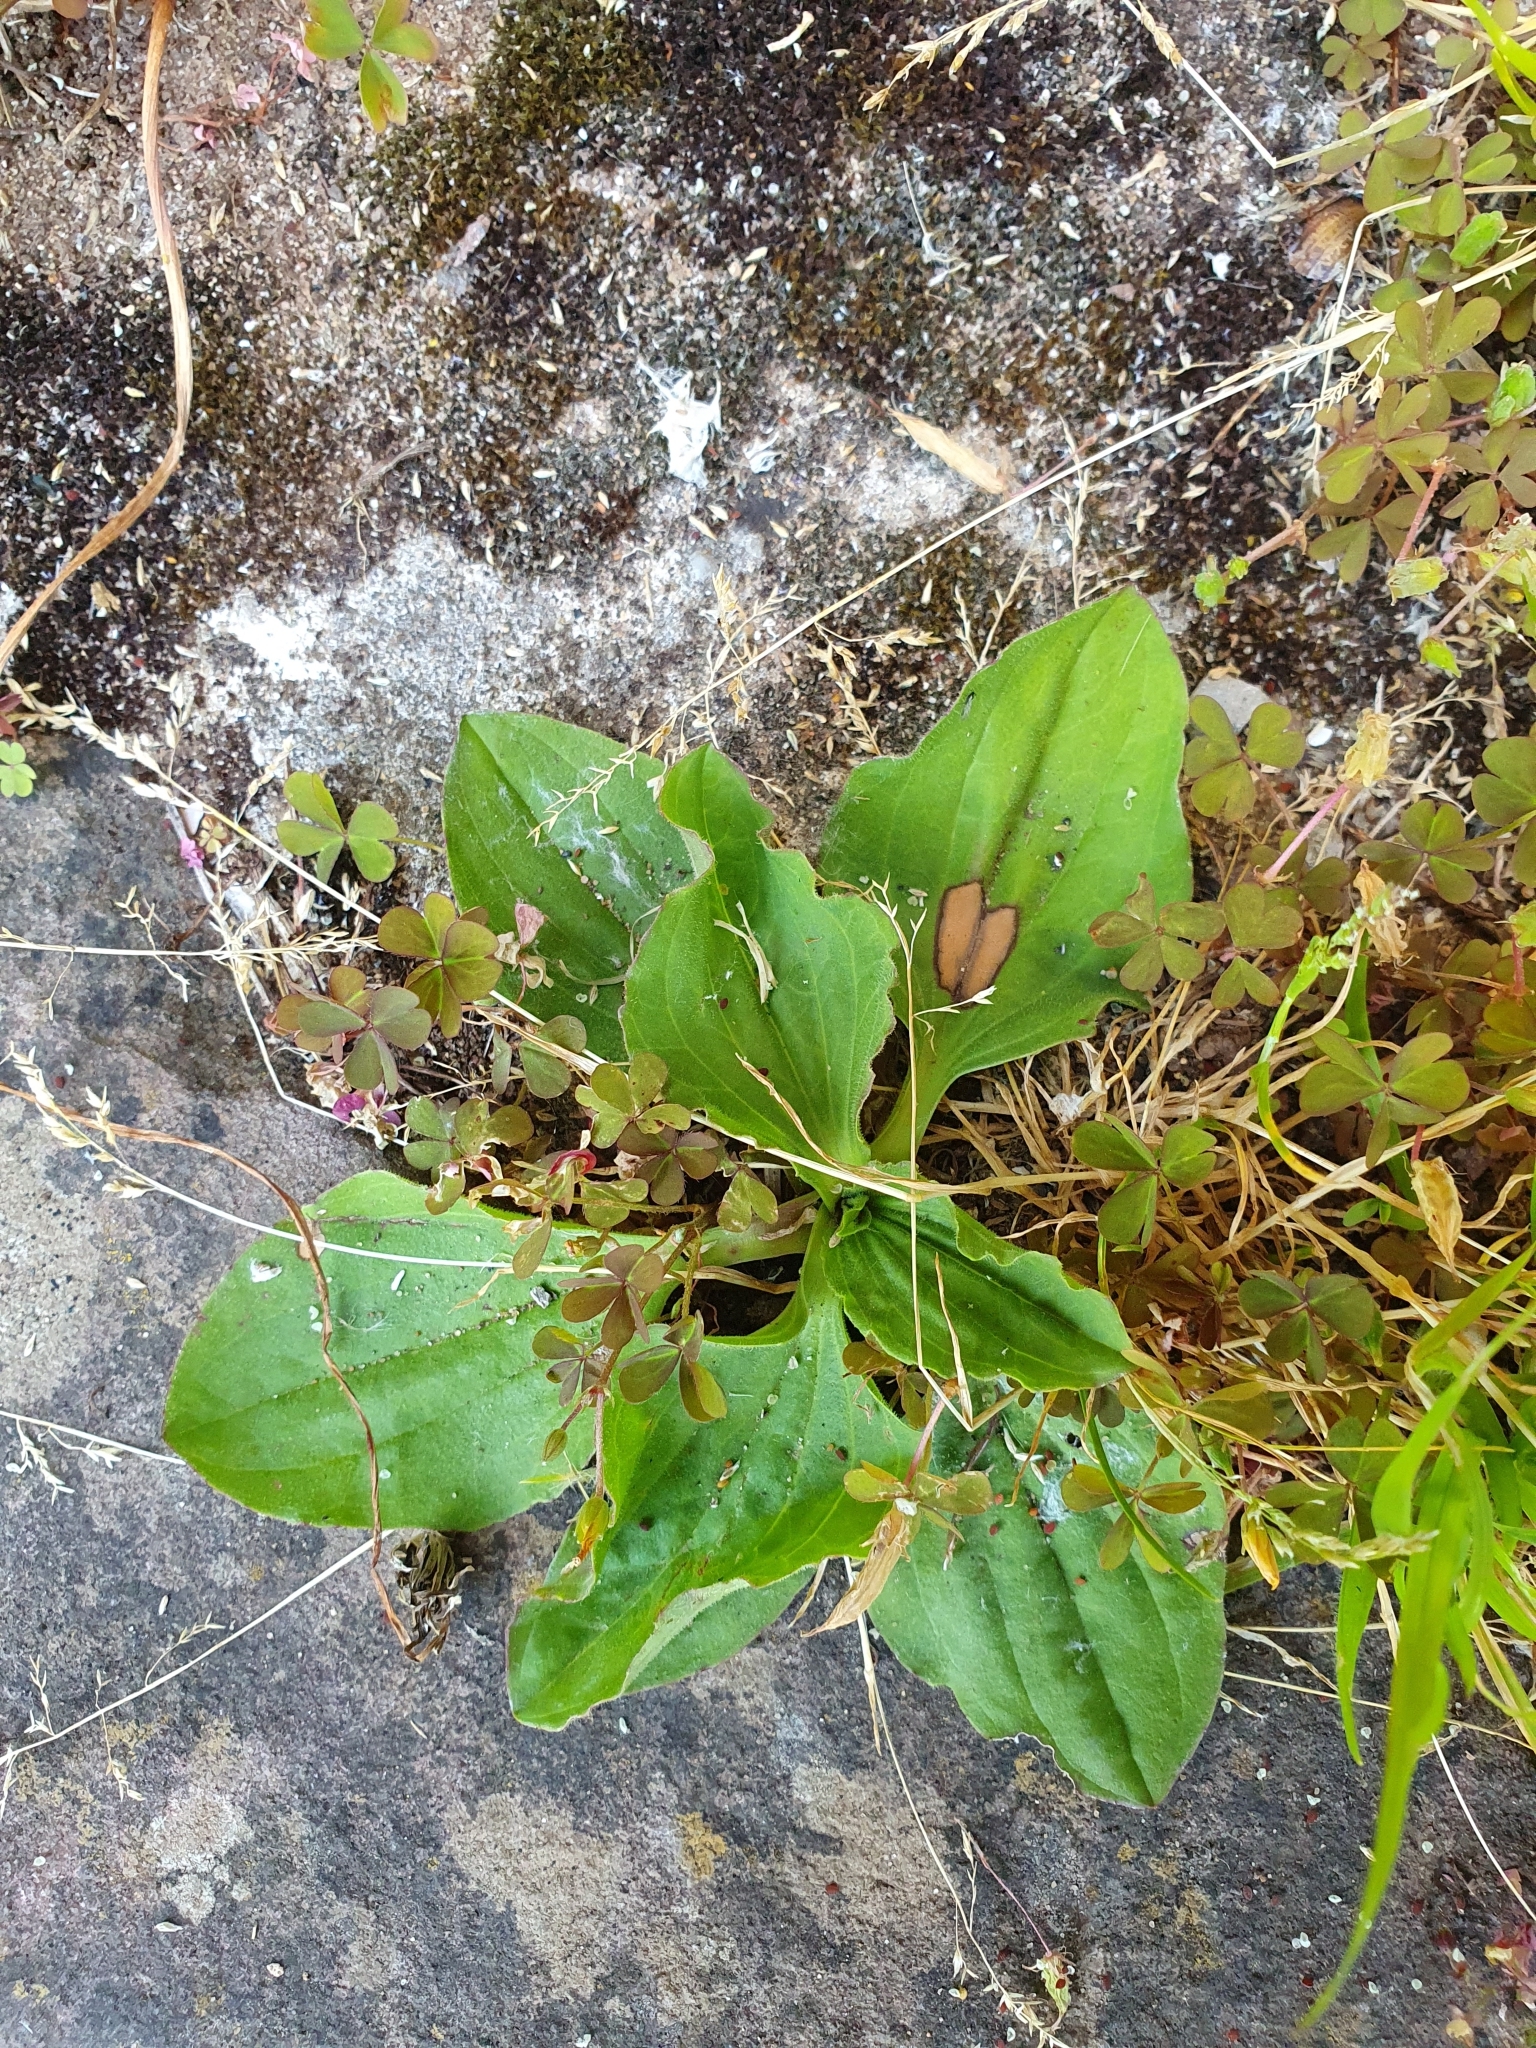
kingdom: Plantae
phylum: Tracheophyta
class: Magnoliopsida
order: Lamiales
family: Plantaginaceae
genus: Plantago
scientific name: Plantago major
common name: Common plantain
